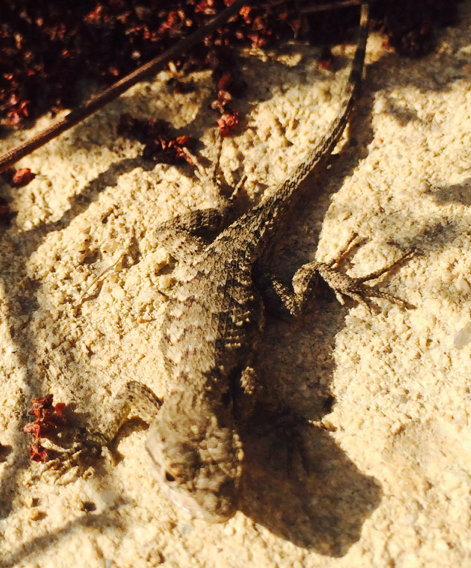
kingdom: Animalia
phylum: Chordata
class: Squamata
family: Phrynosomatidae
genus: Sceloporus
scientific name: Sceloporus occidentalis
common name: Western fence lizard
